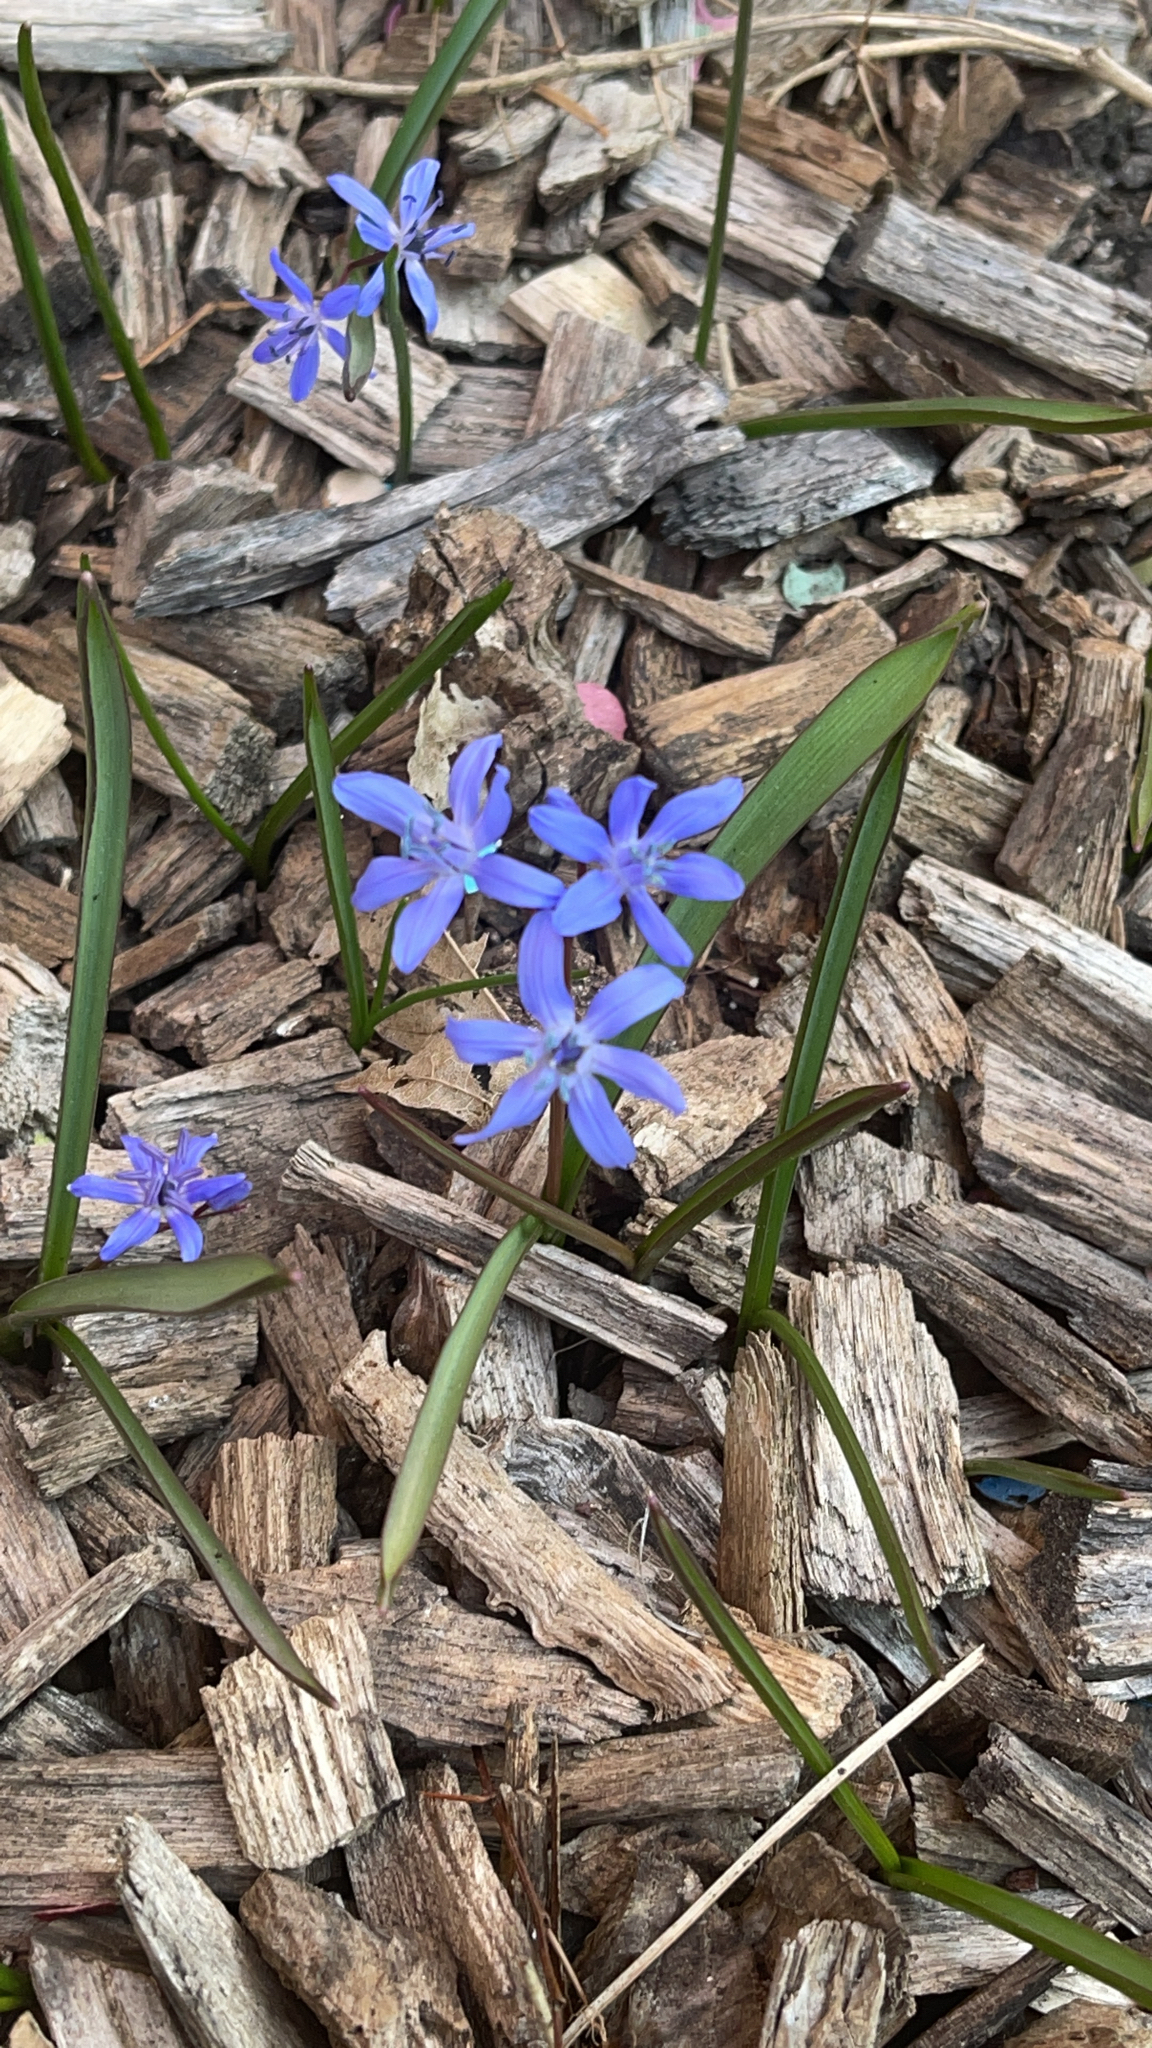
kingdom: Plantae
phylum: Tracheophyta
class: Liliopsida
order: Asparagales
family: Asparagaceae
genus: Scilla
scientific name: Scilla bifolia
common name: Alpine squill
